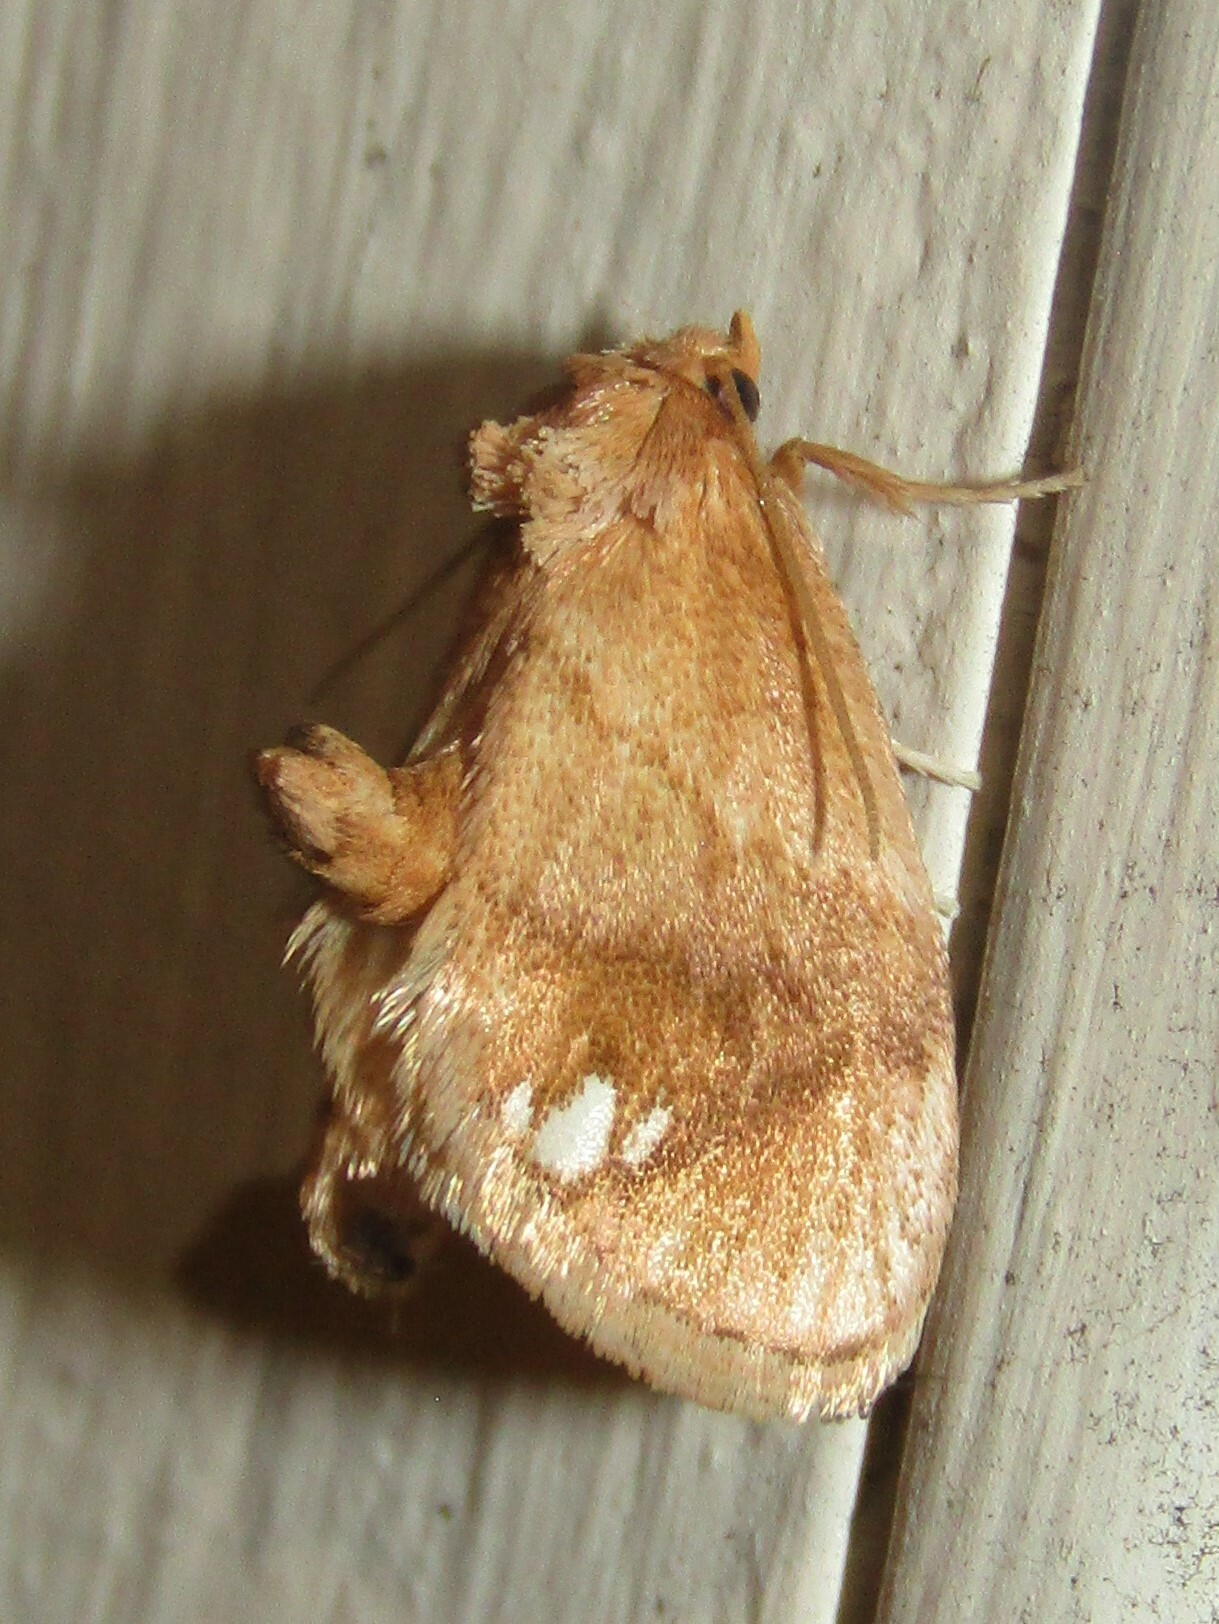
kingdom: Animalia
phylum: Arthropoda
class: Insecta
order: Lepidoptera
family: Limacodidae
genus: Packardia
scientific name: Packardia geminata
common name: Jeweled tailed slug moth
